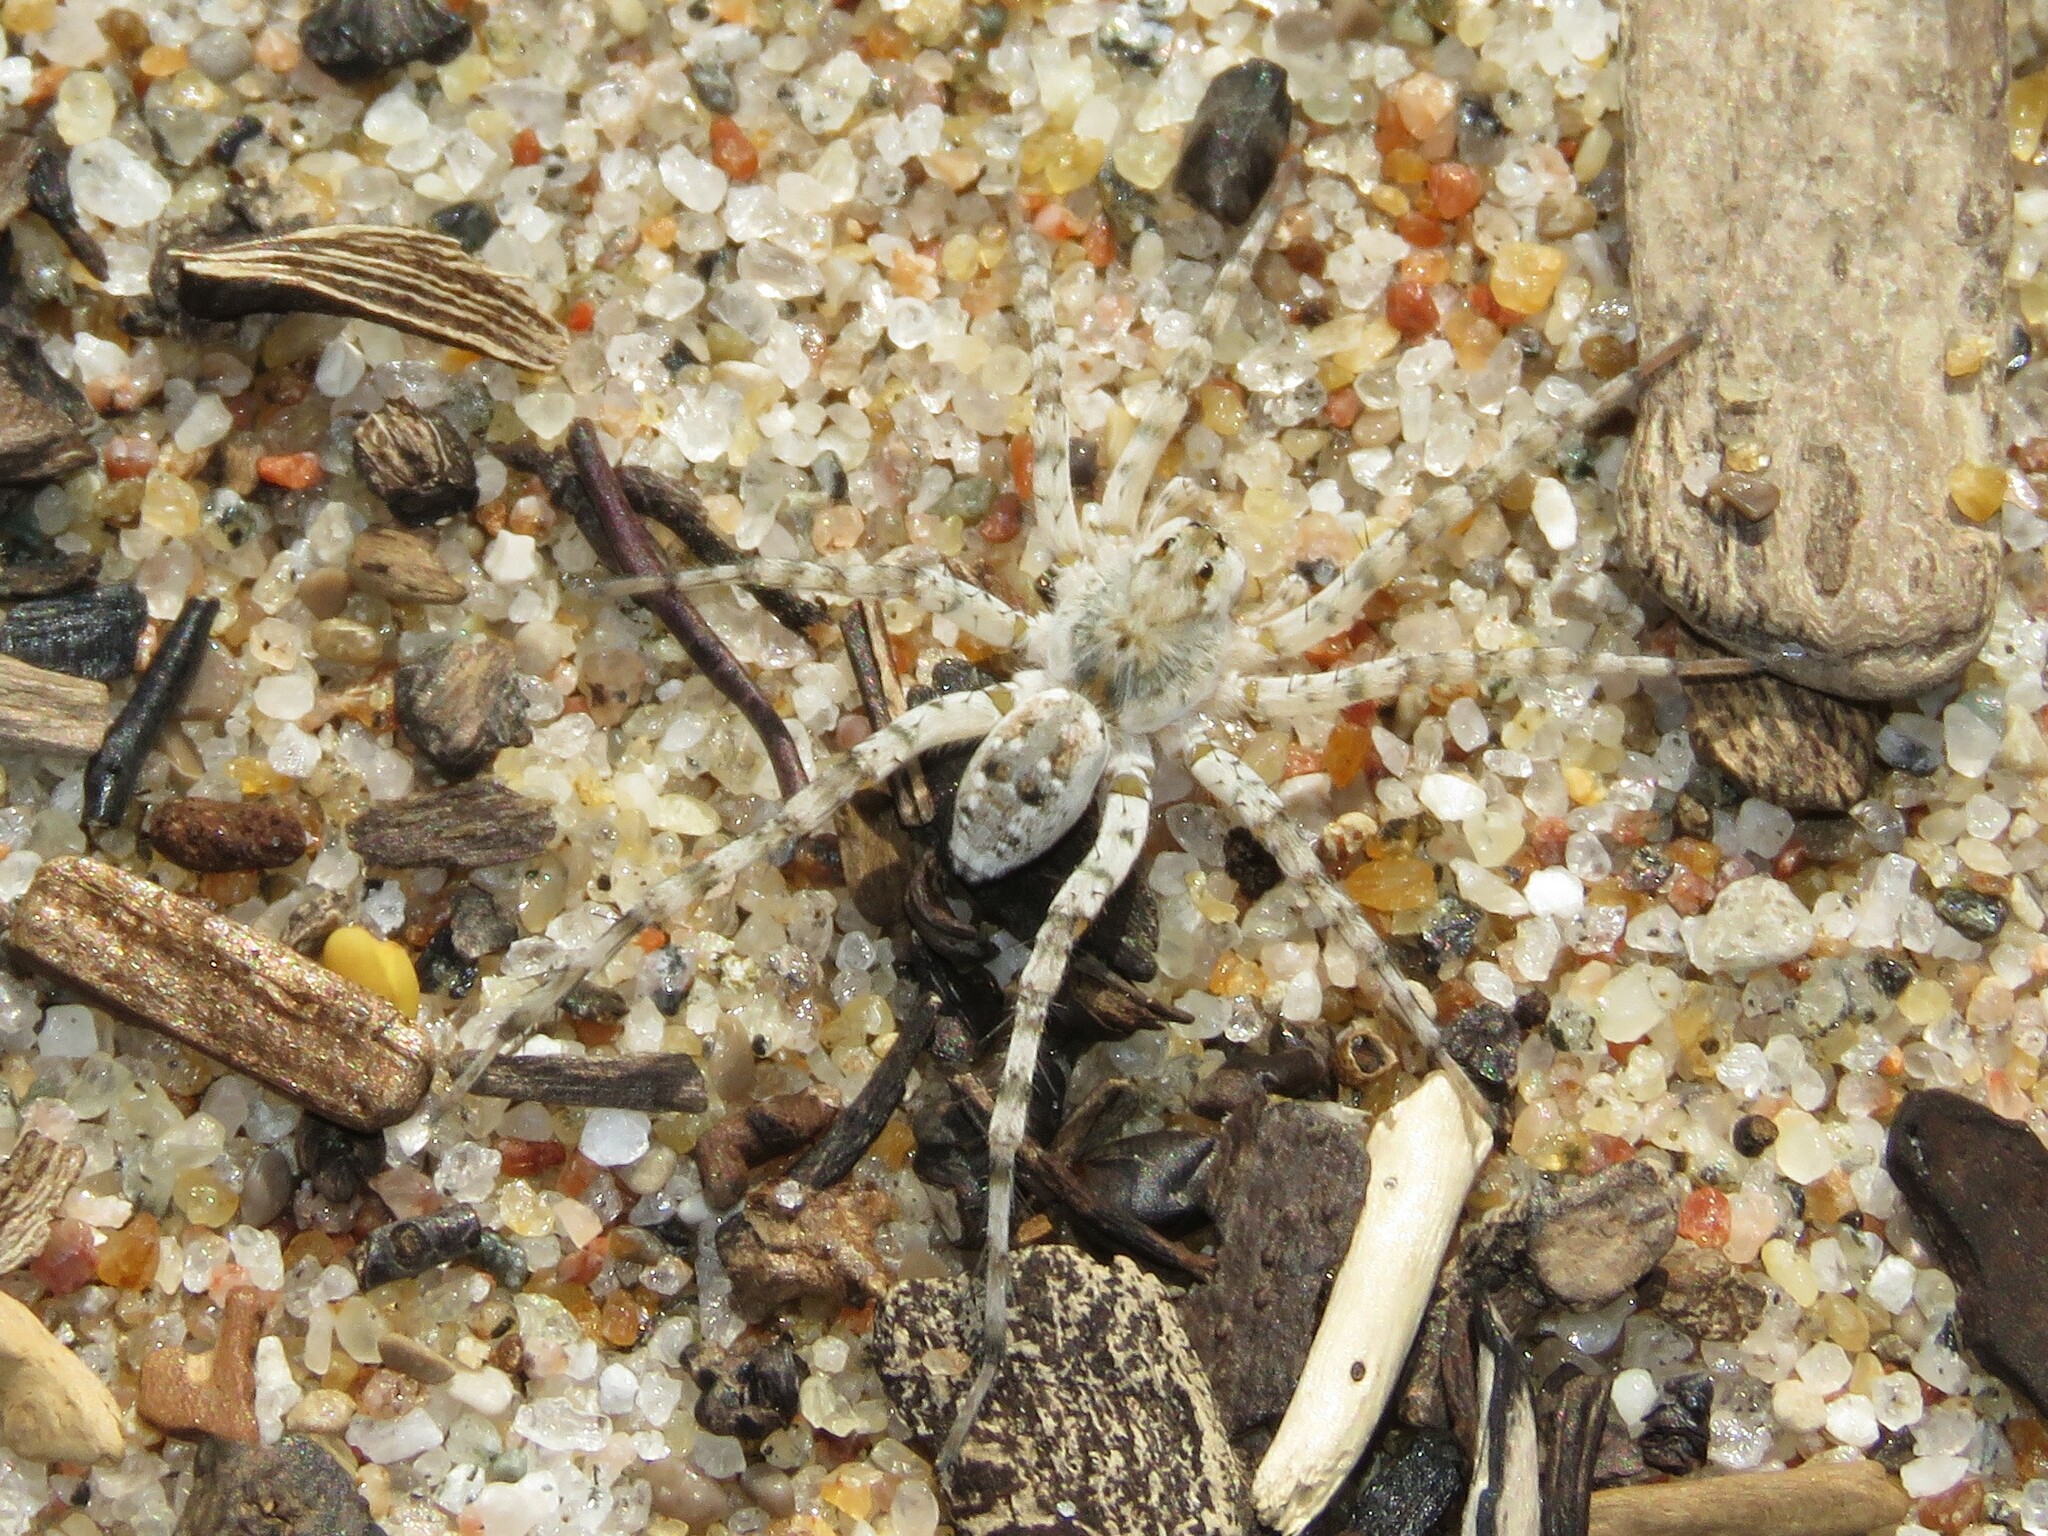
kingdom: Animalia
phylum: Arthropoda
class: Arachnida
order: Araneae
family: Lycosidae
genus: Arctosa
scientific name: Arctosa littoralis
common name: Wolf spiders
